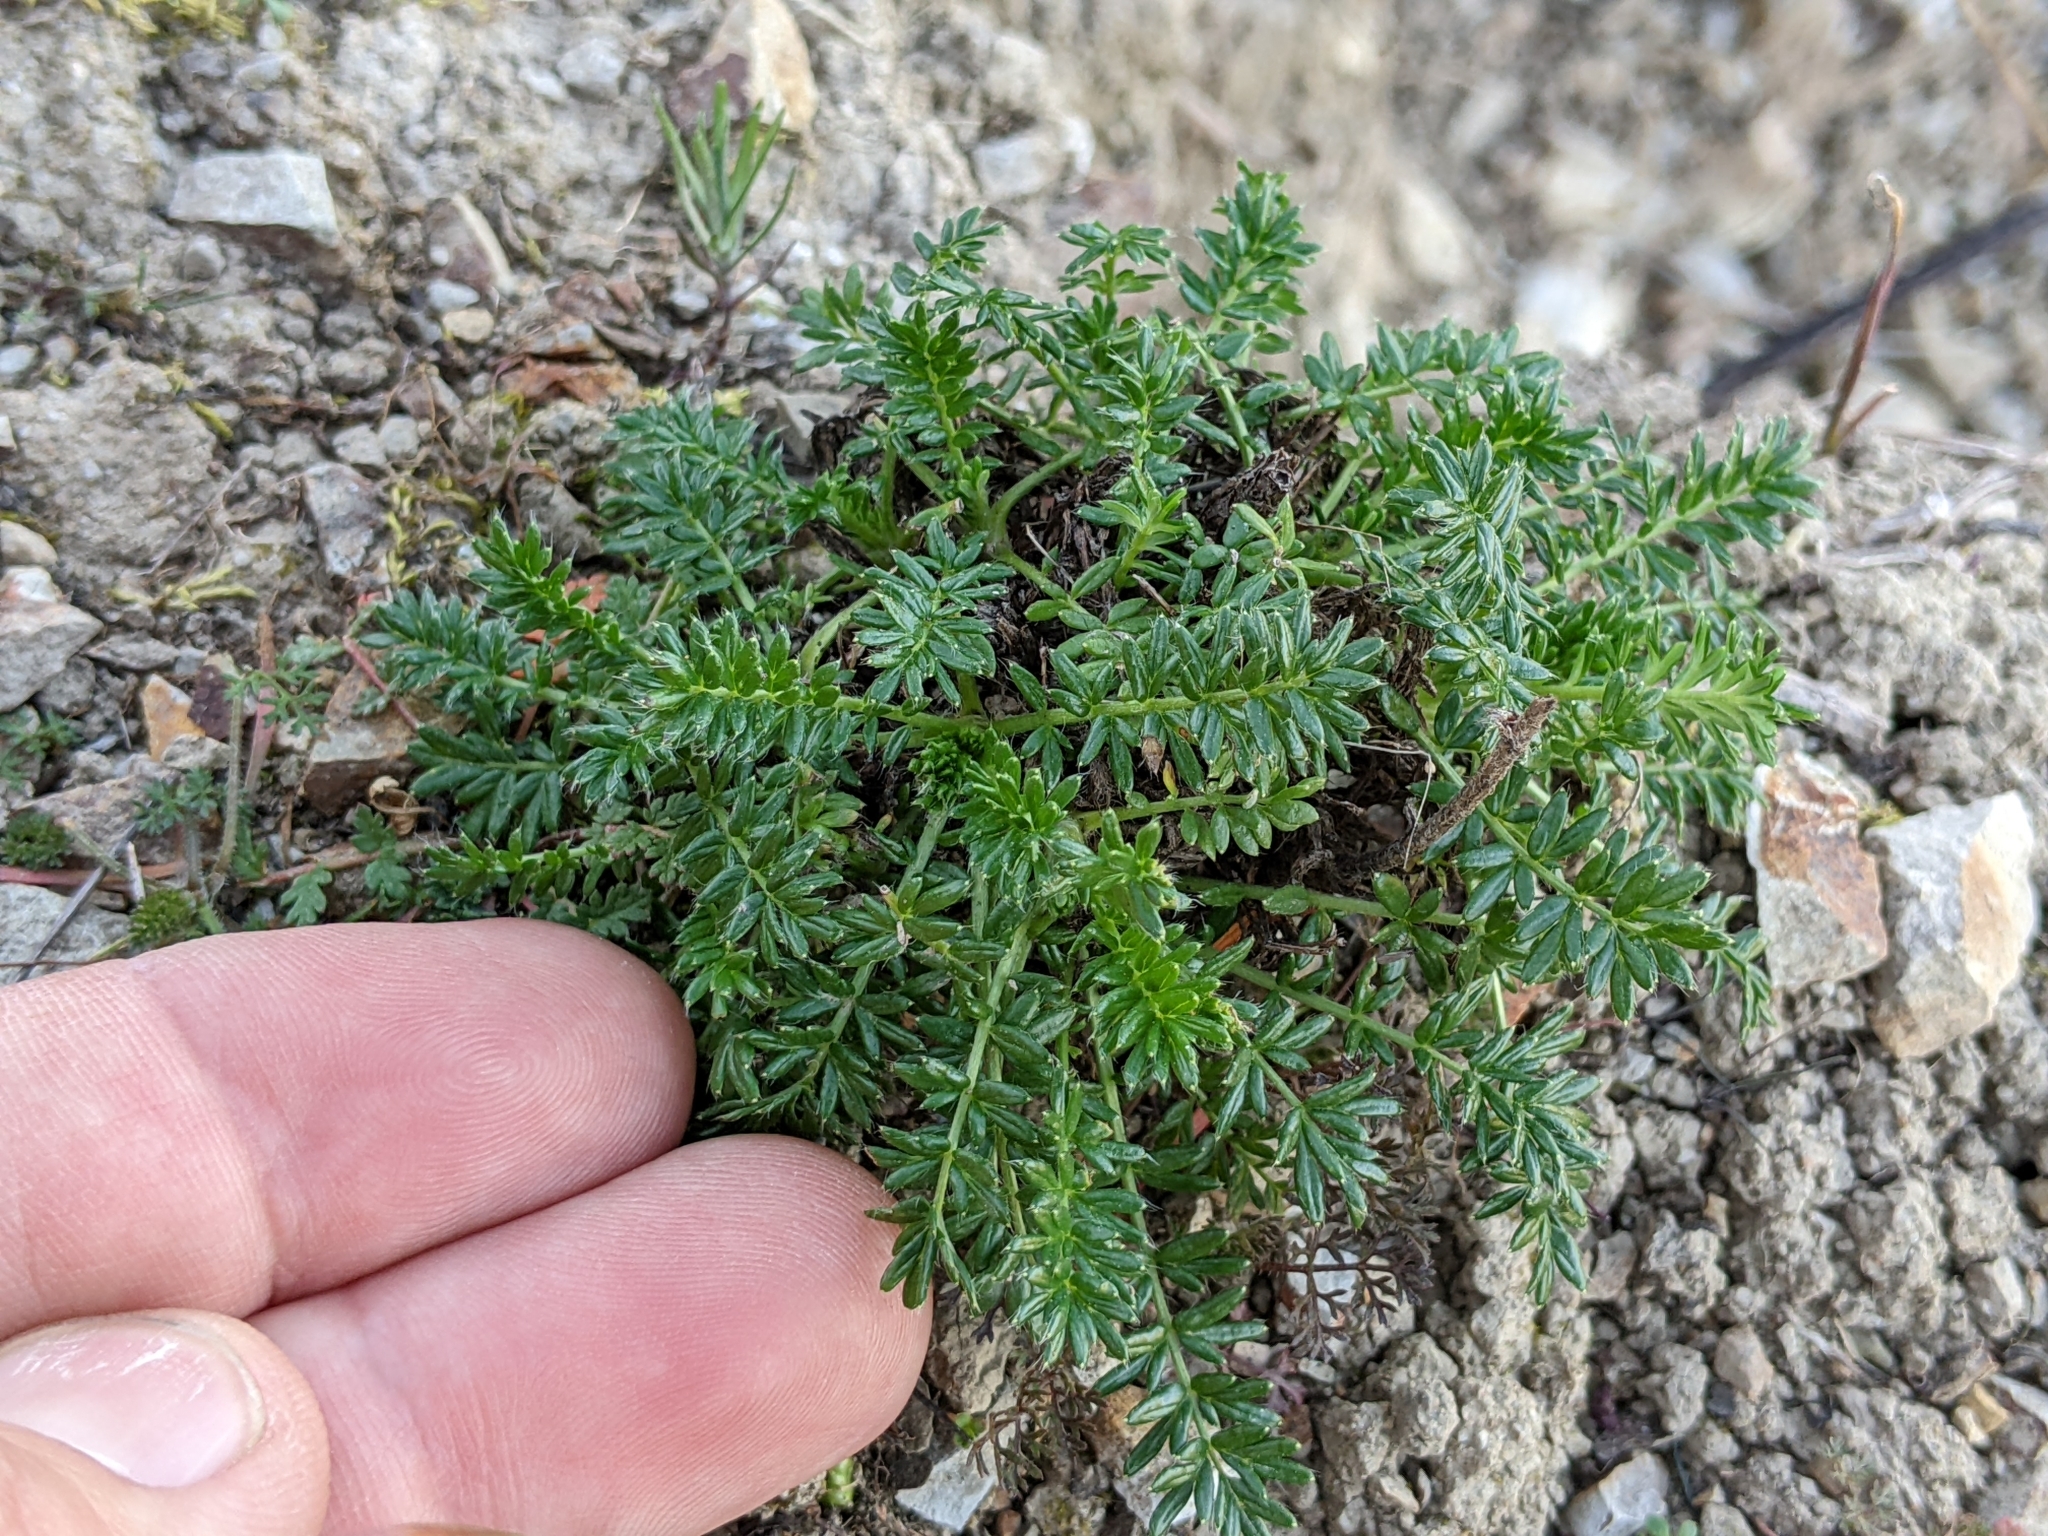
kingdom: Plantae
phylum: Tracheophyta
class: Magnoliopsida
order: Rosales
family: Rosaceae
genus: Acaena
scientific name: Acaena pinnatifida
